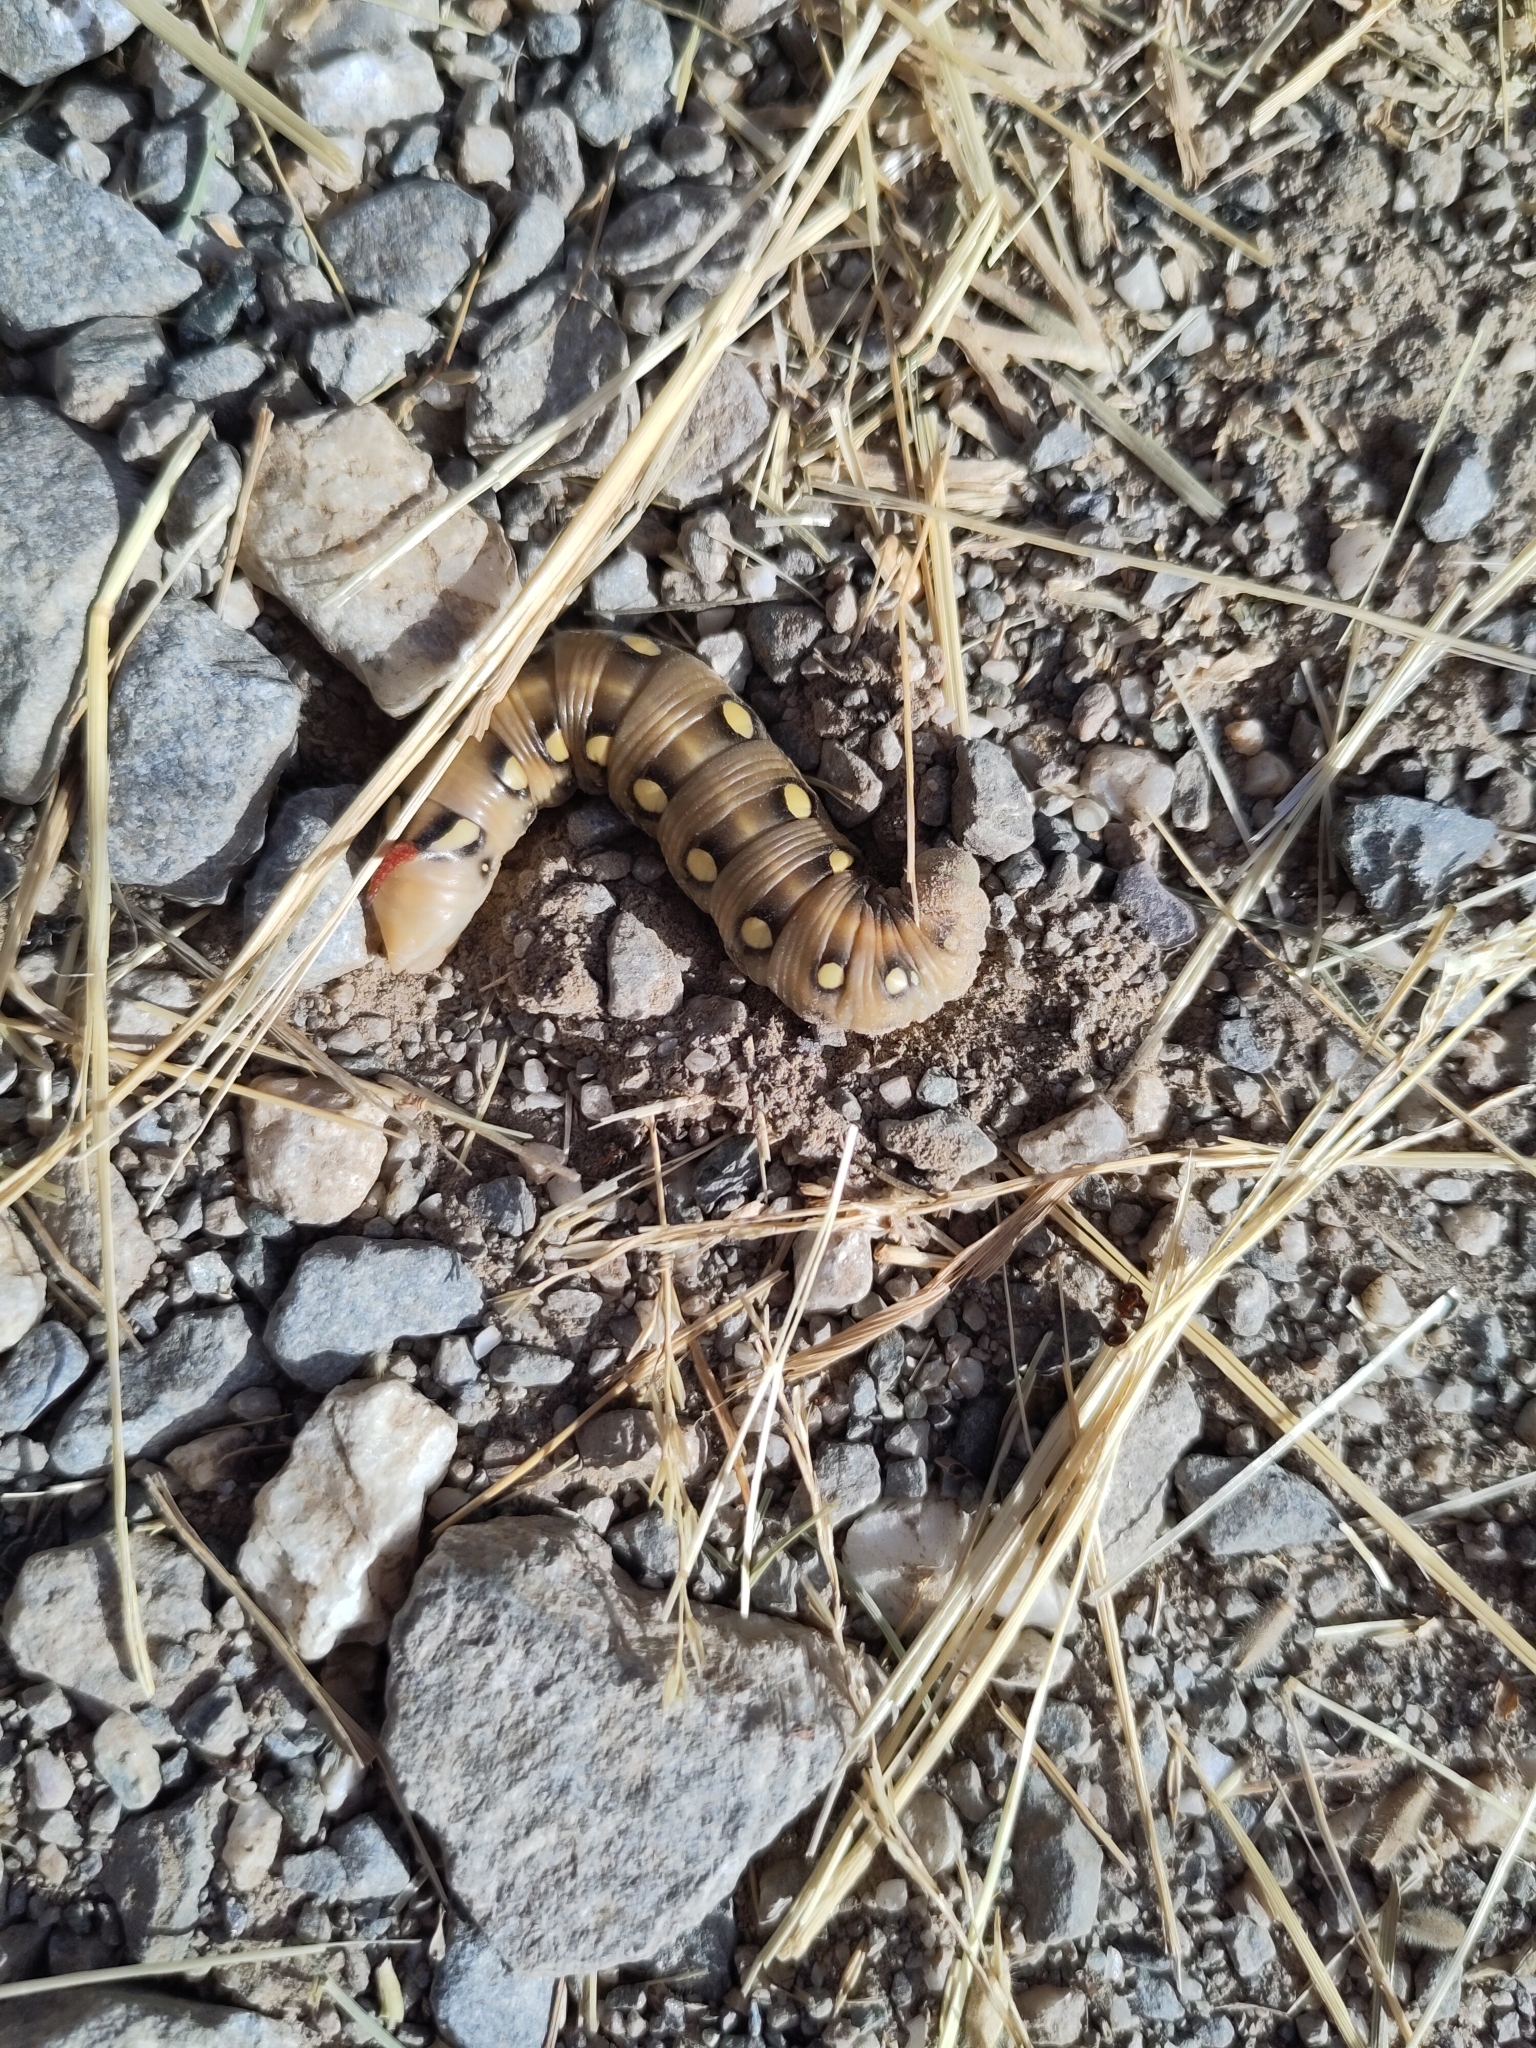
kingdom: Animalia
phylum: Arthropoda
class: Insecta
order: Lepidoptera
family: Sphingidae
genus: Hyles
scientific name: Hyles gallii
